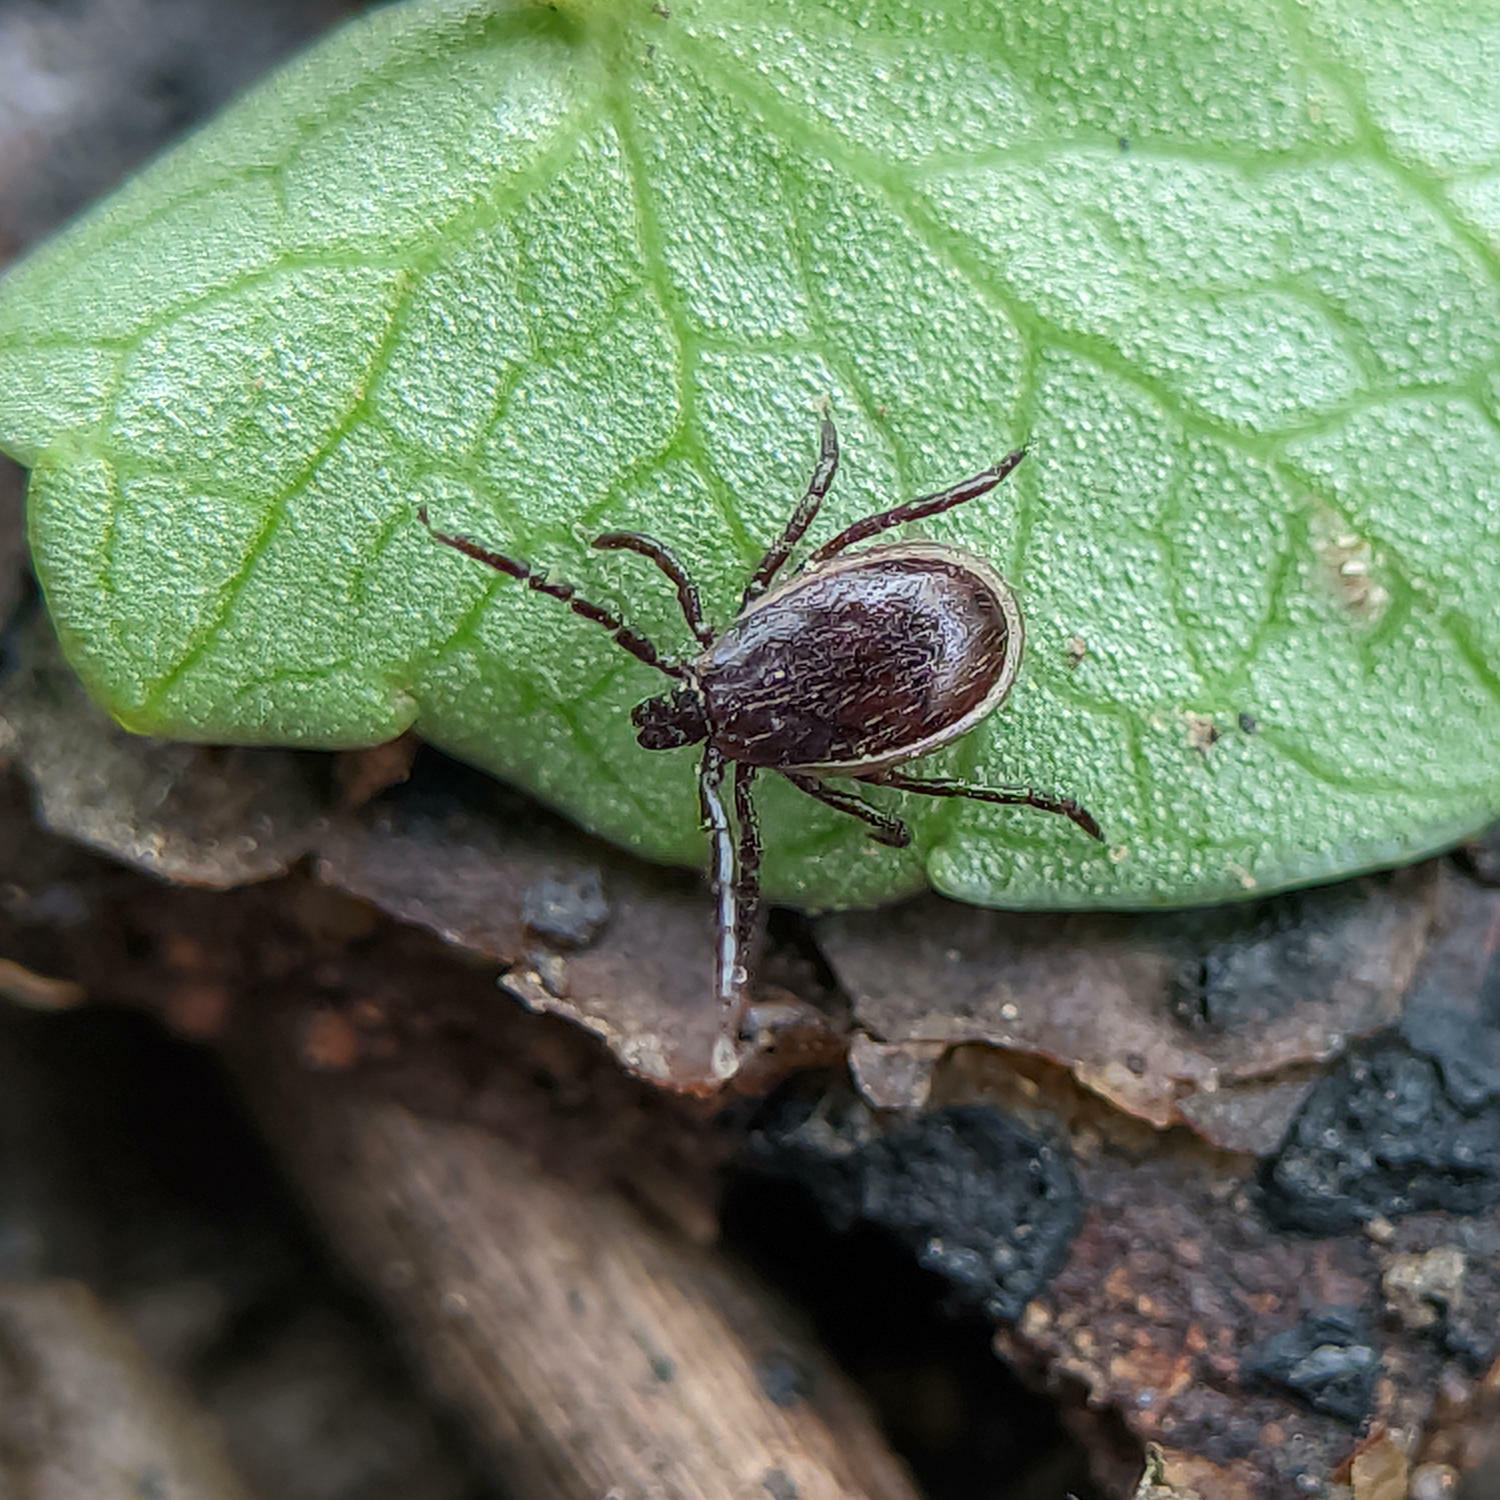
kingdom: Animalia
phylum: Arthropoda
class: Arachnida
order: Ixodida
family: Ixodidae
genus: Ixodes
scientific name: Ixodes
